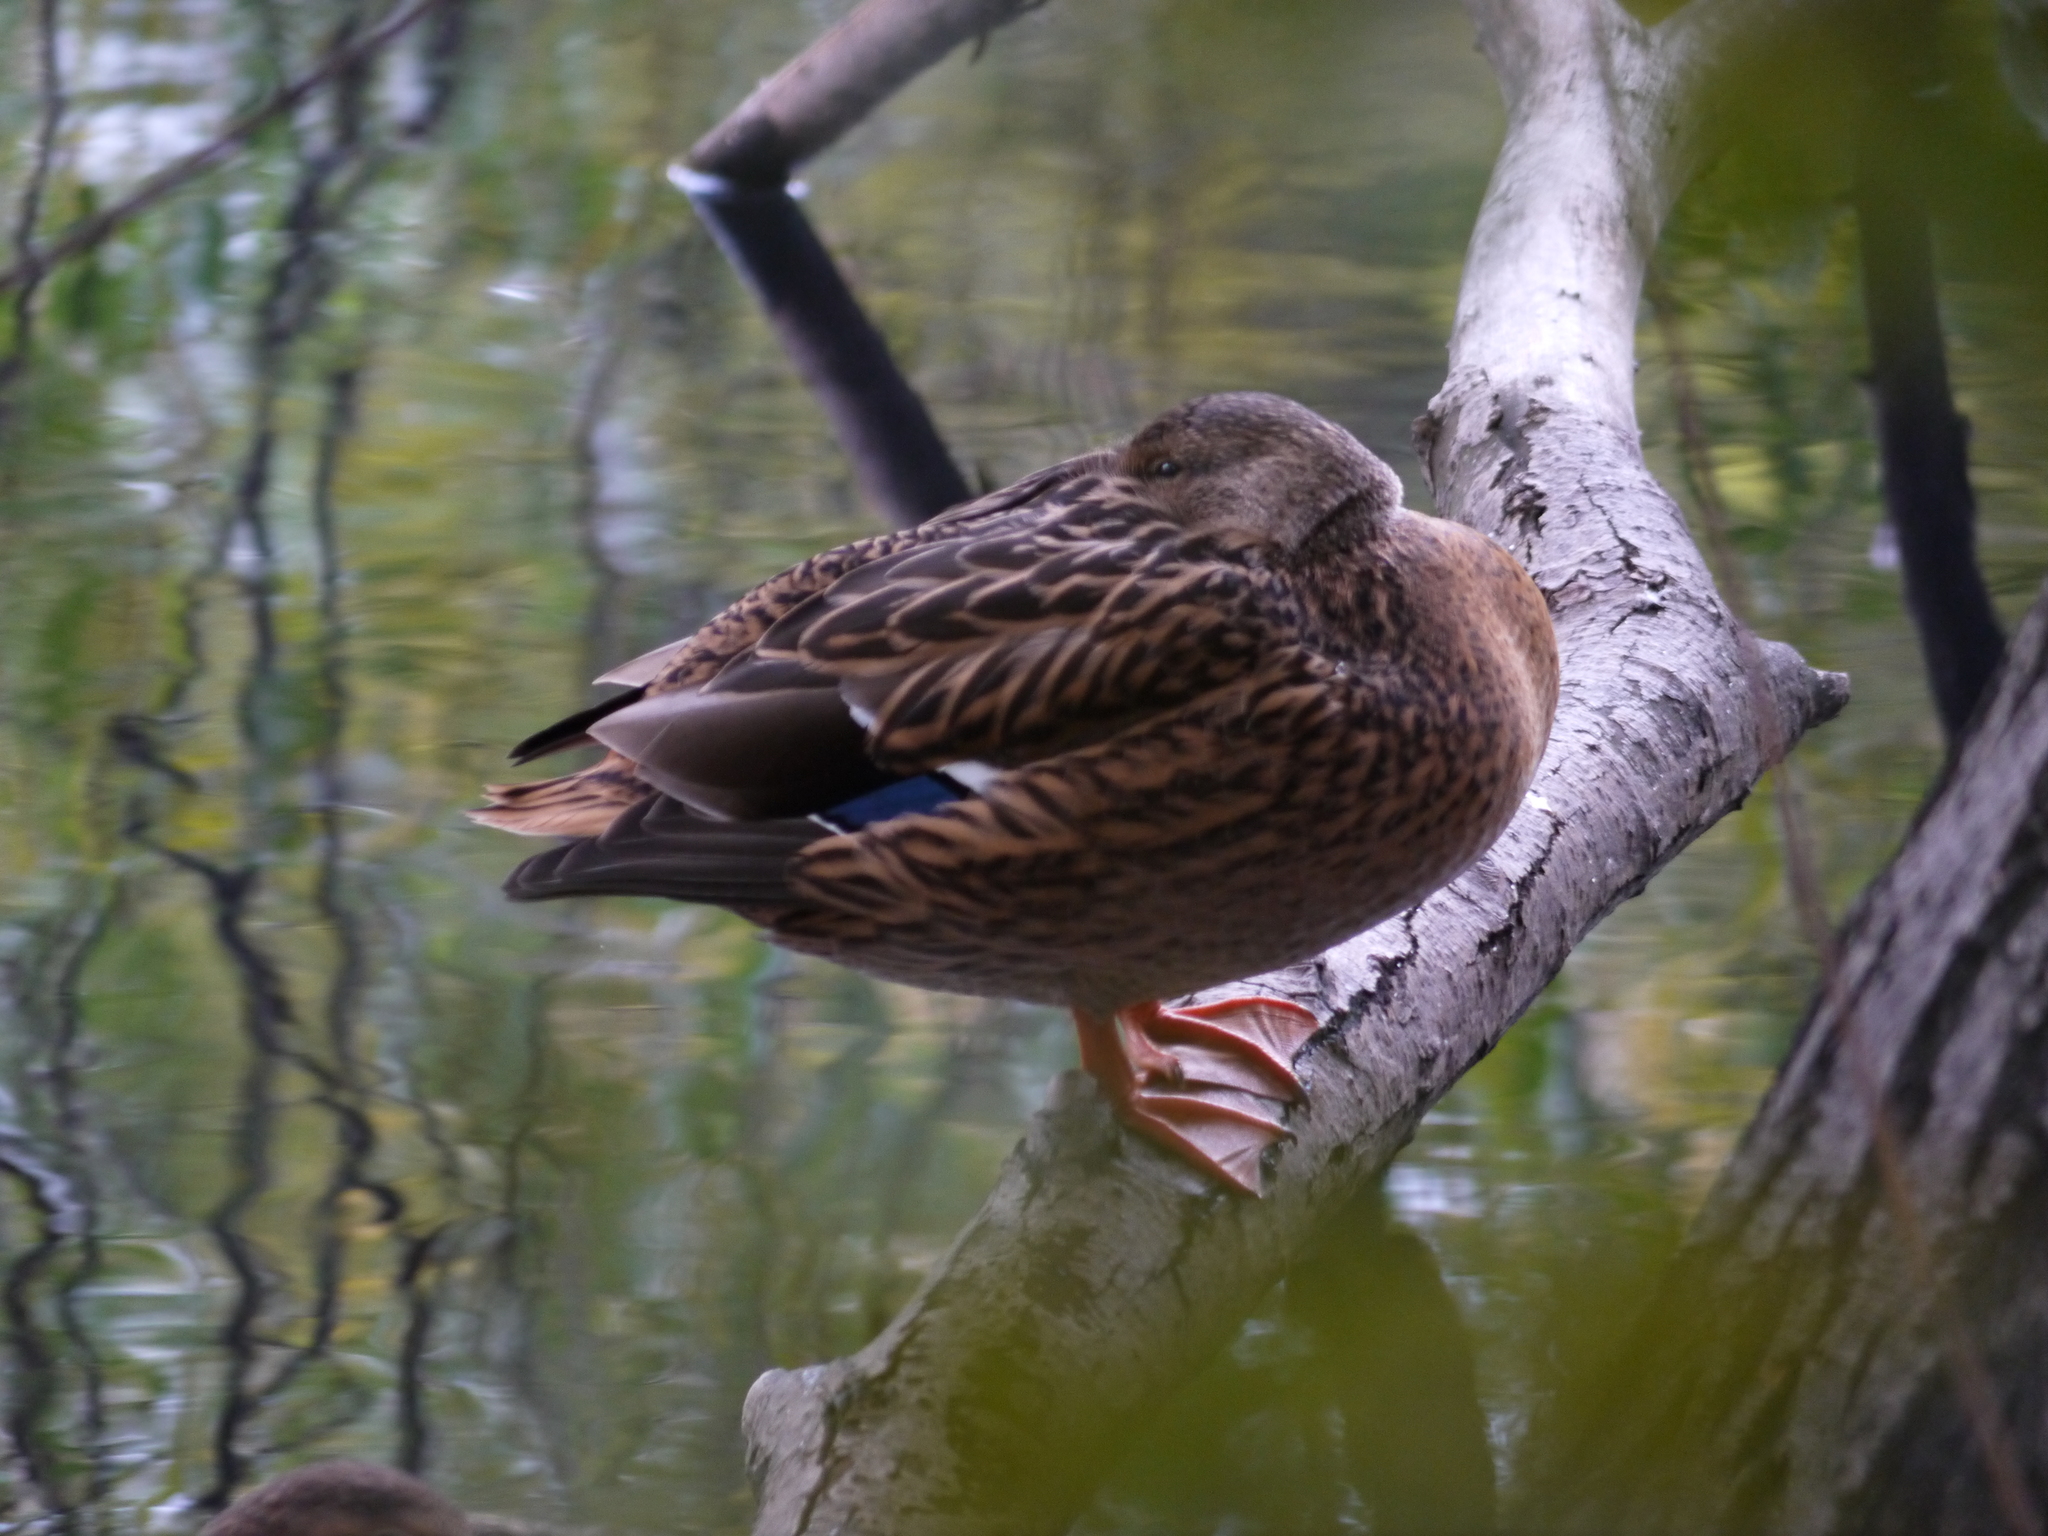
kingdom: Animalia
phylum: Chordata
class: Aves
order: Anseriformes
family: Anatidae
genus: Anas
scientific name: Anas platyrhynchos
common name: Mallard
